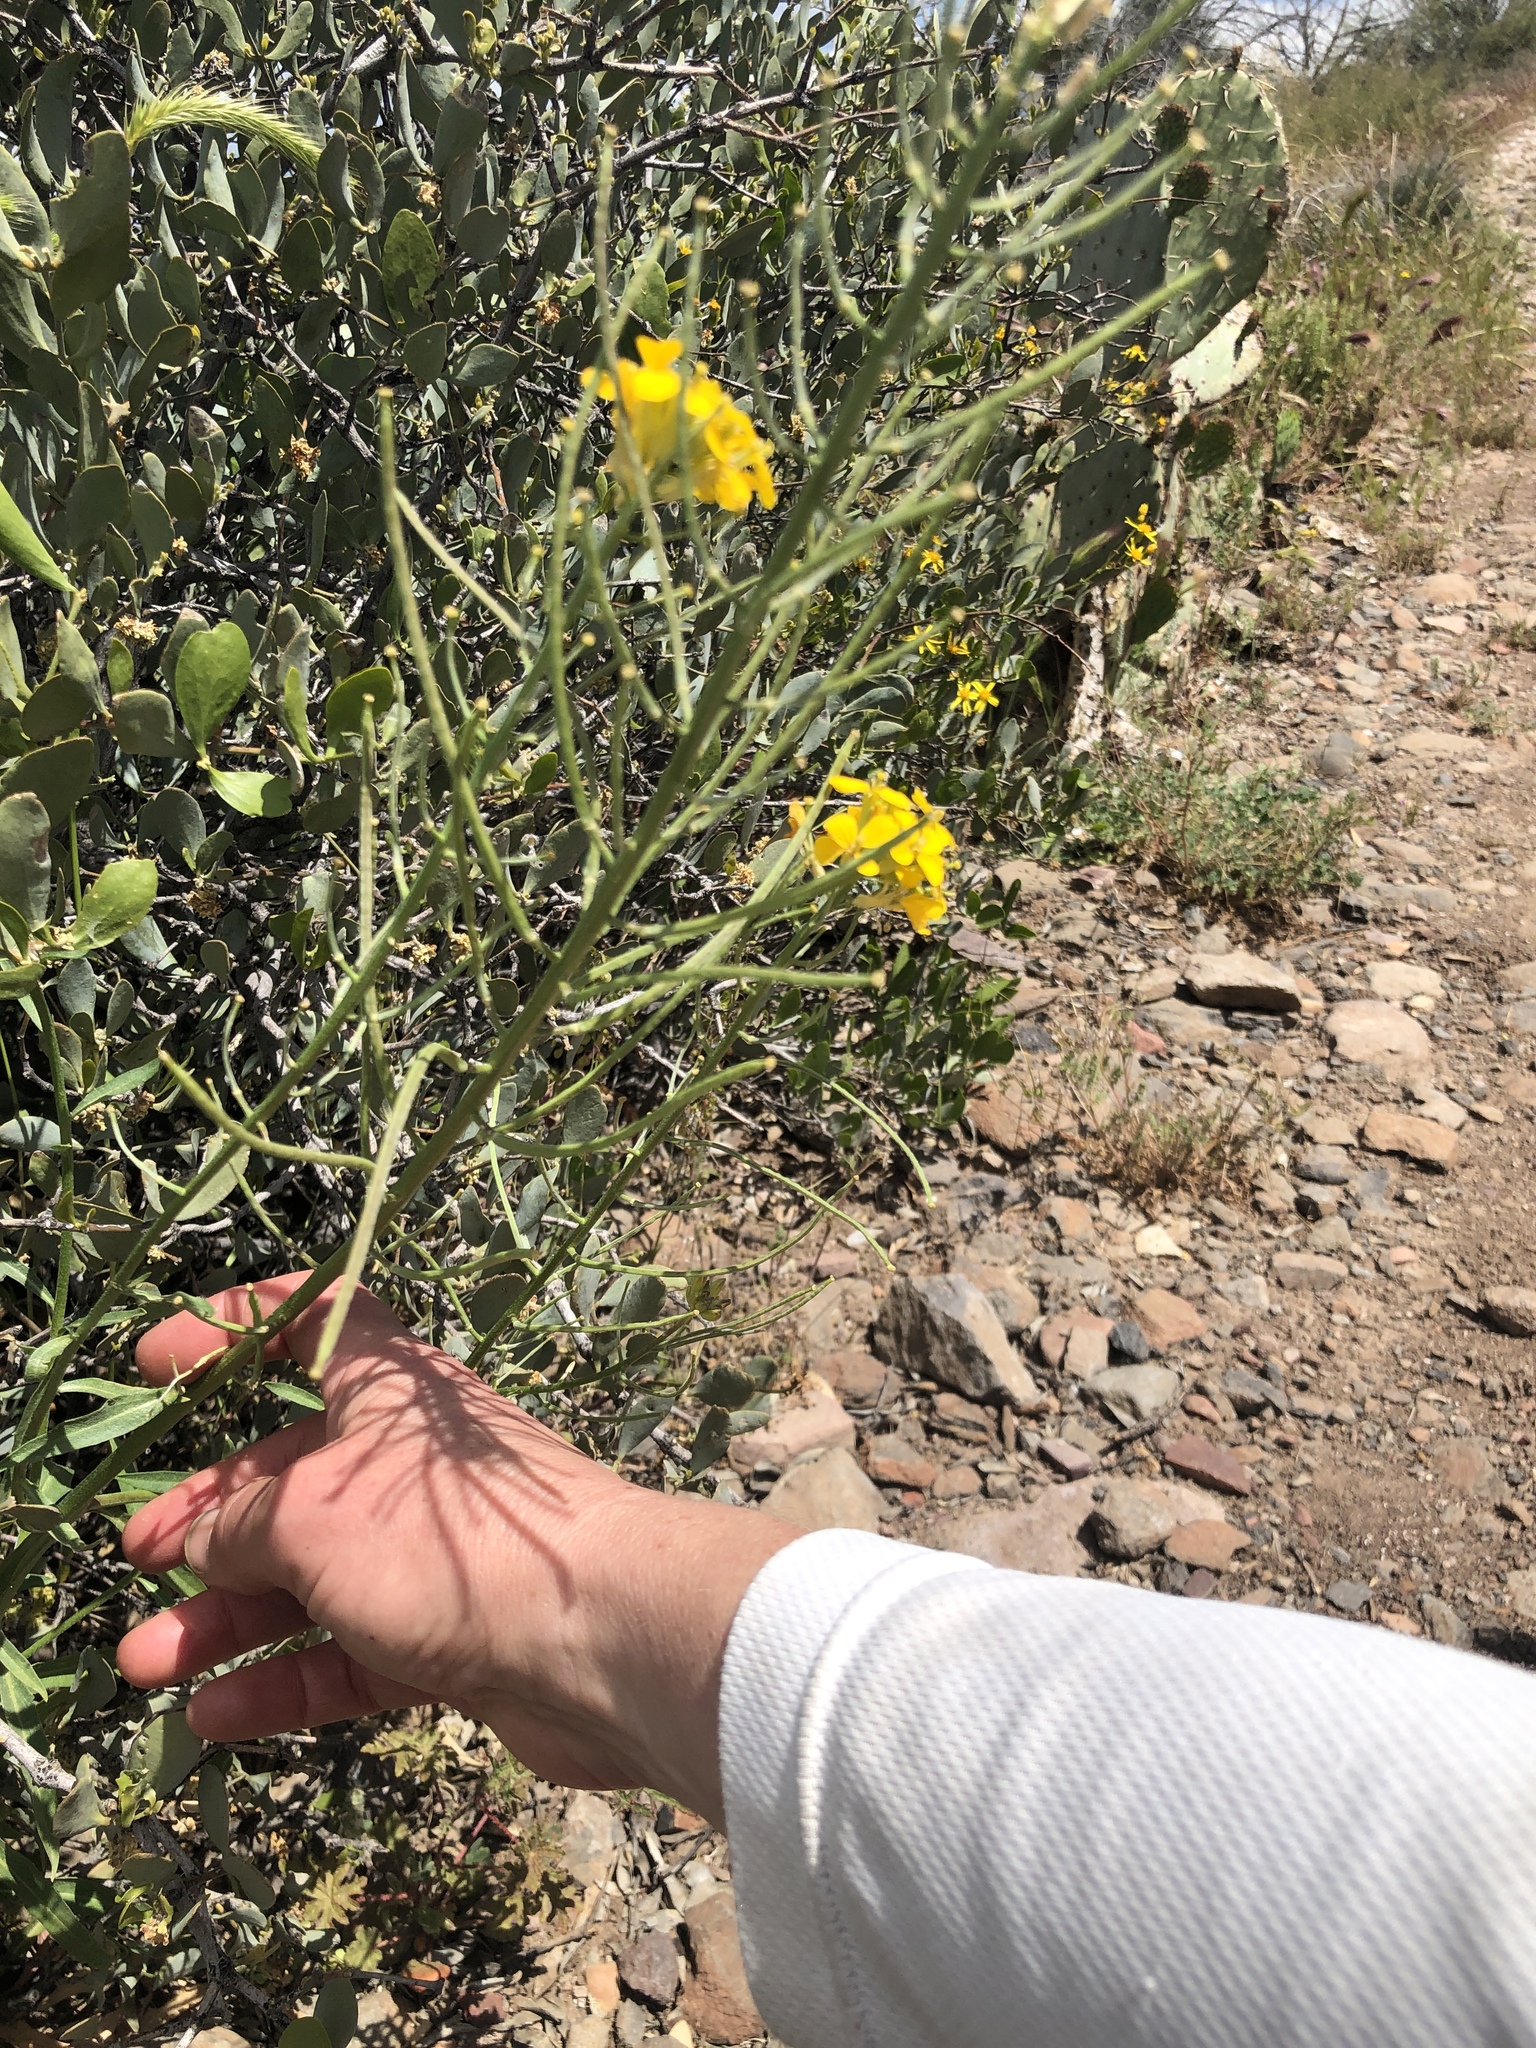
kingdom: Plantae
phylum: Tracheophyta
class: Magnoliopsida
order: Brassicales
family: Brassicaceae
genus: Erysimum
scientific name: Erysimum capitatum
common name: Western wallflower
